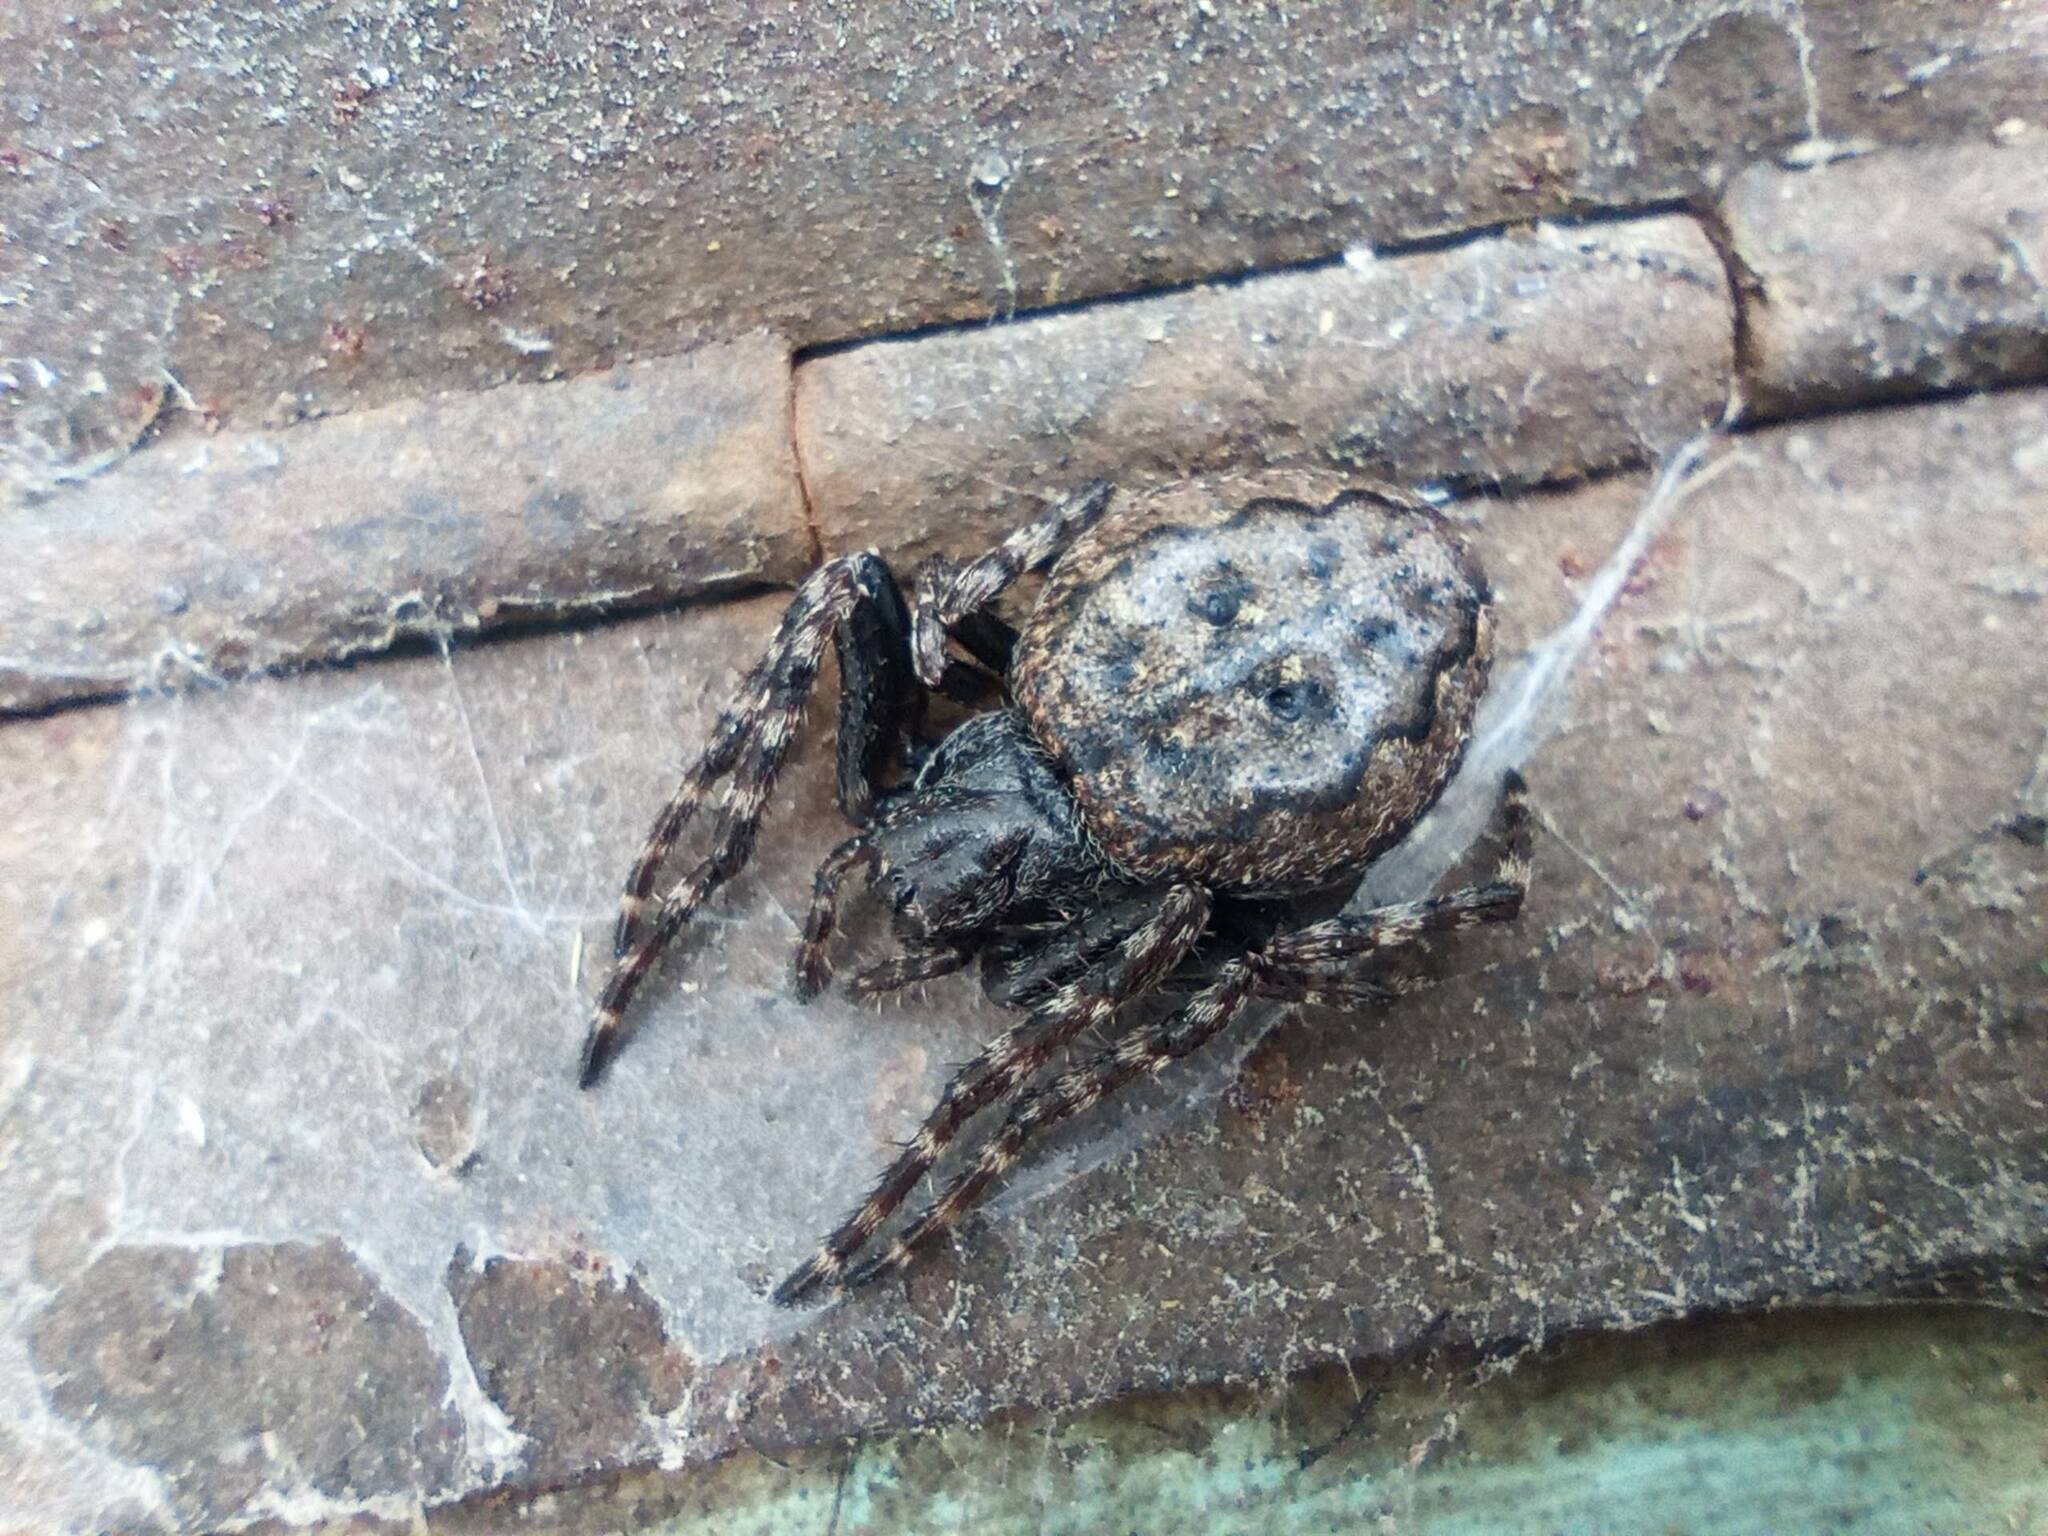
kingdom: Animalia
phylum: Arthropoda
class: Arachnida
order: Araneae
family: Araneidae
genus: Nuctenea
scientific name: Nuctenea umbratica
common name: Toad spider
